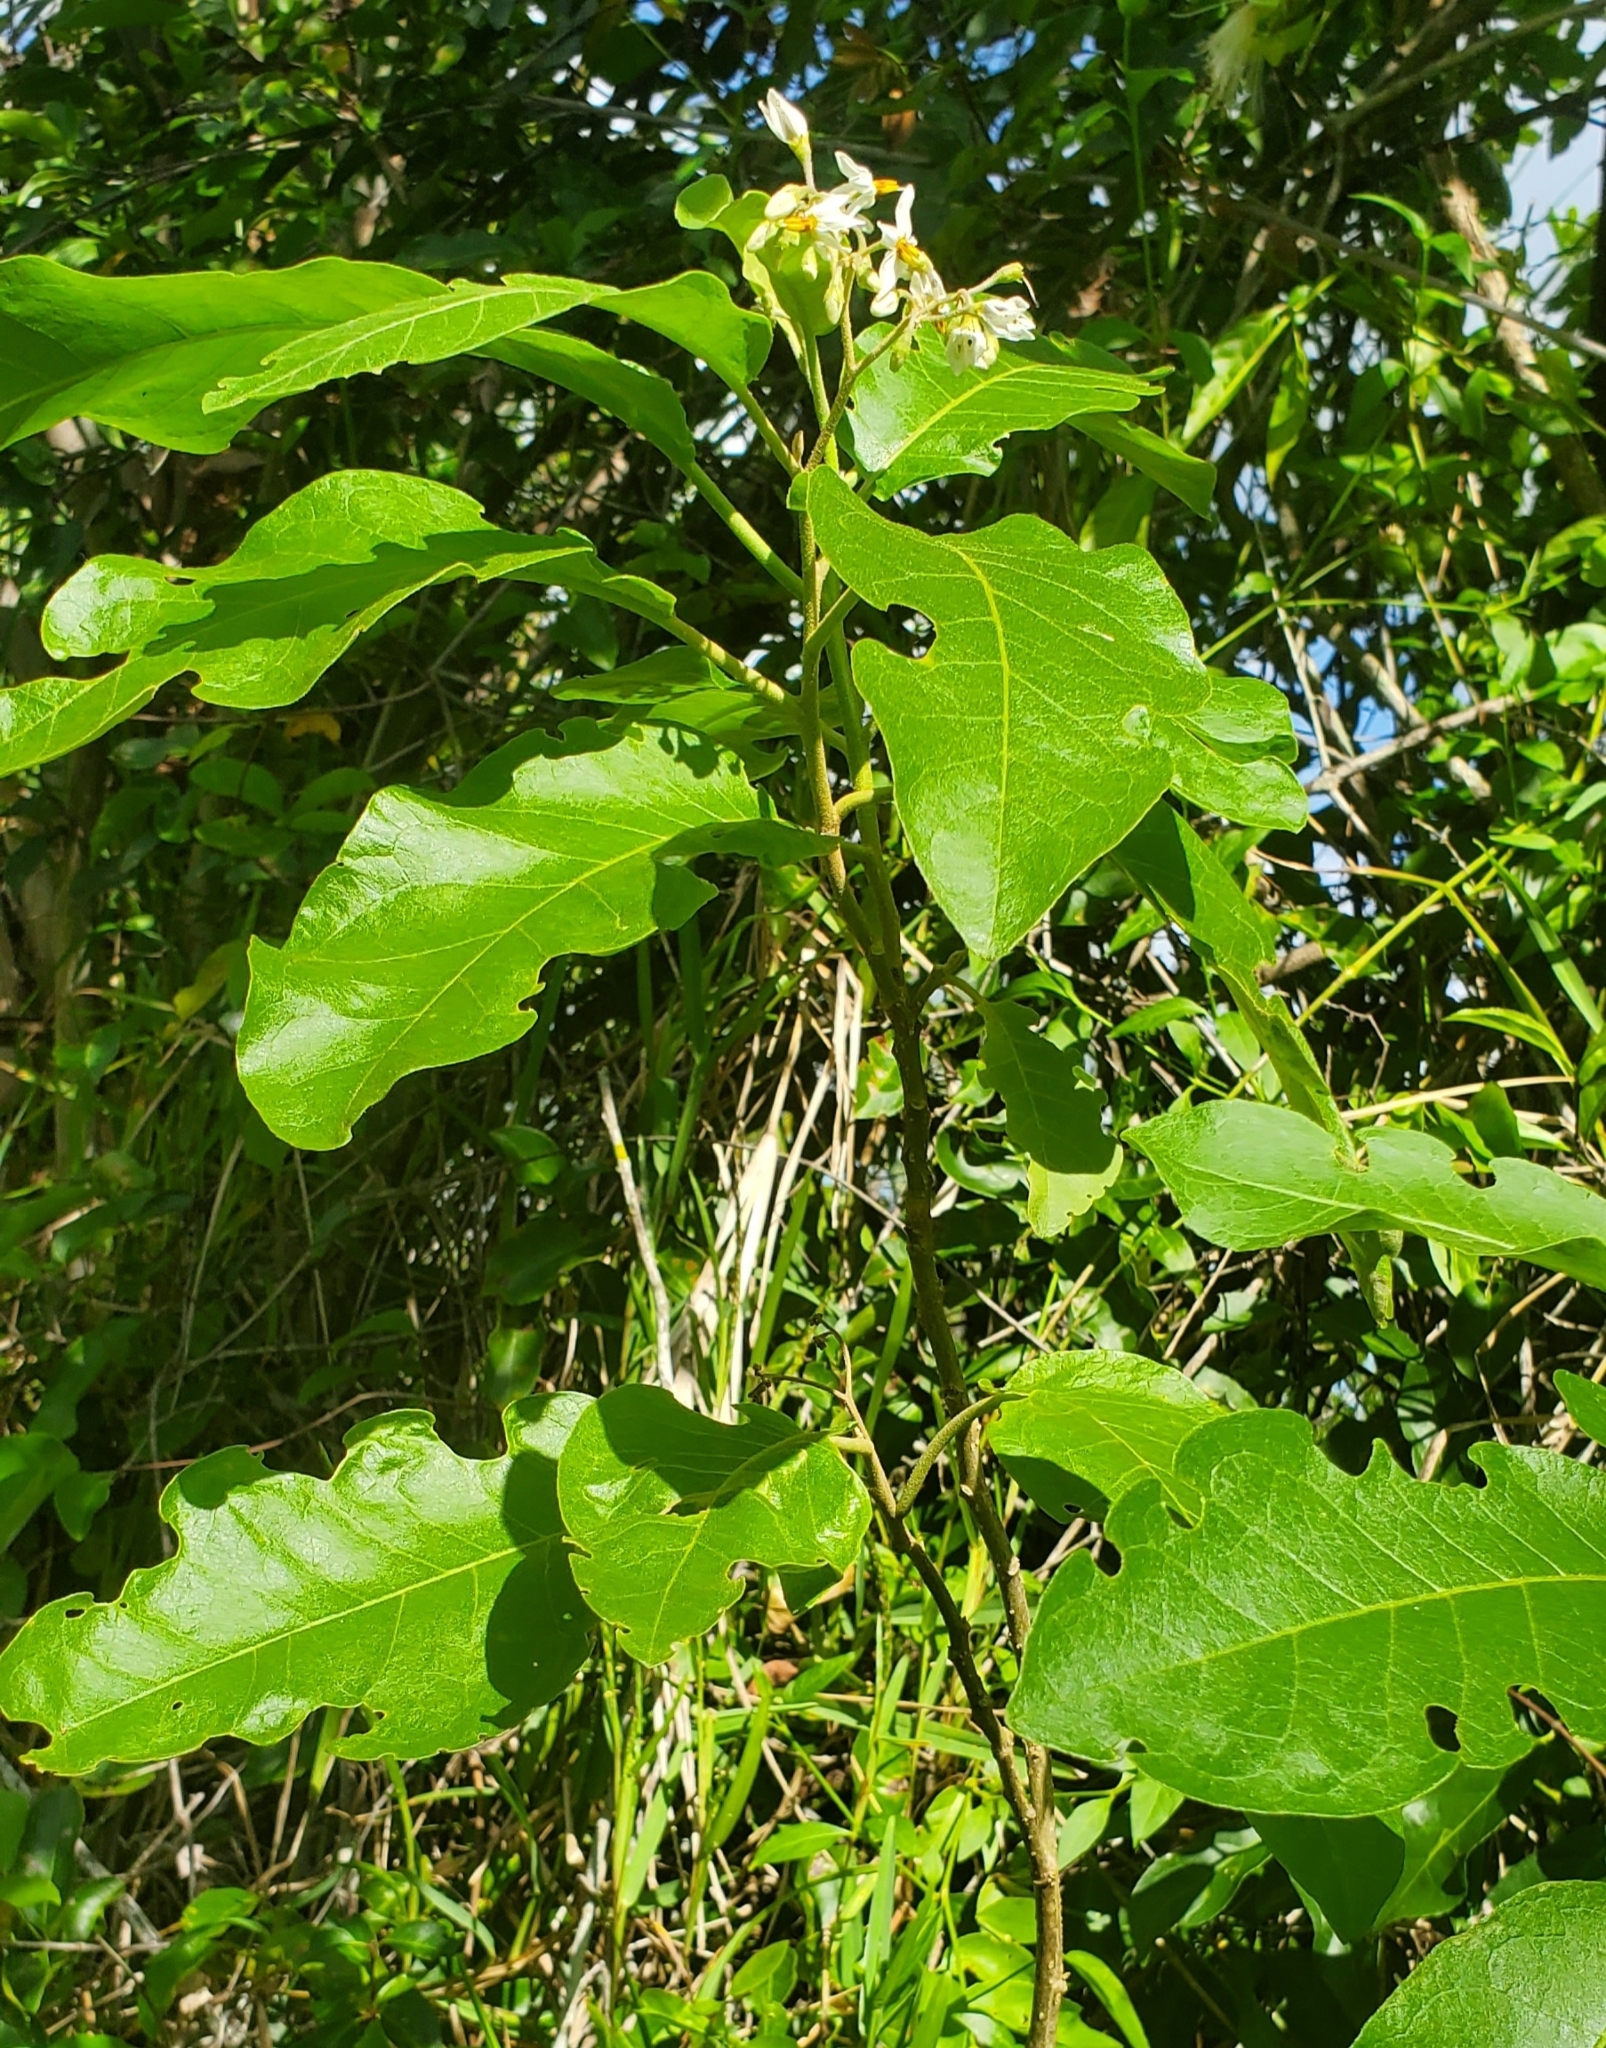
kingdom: Plantae
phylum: Tracheophyta
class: Magnoliopsida
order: Solanales
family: Solanaceae
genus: Solanum
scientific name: Solanum donianum
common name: Mullein nightshade
